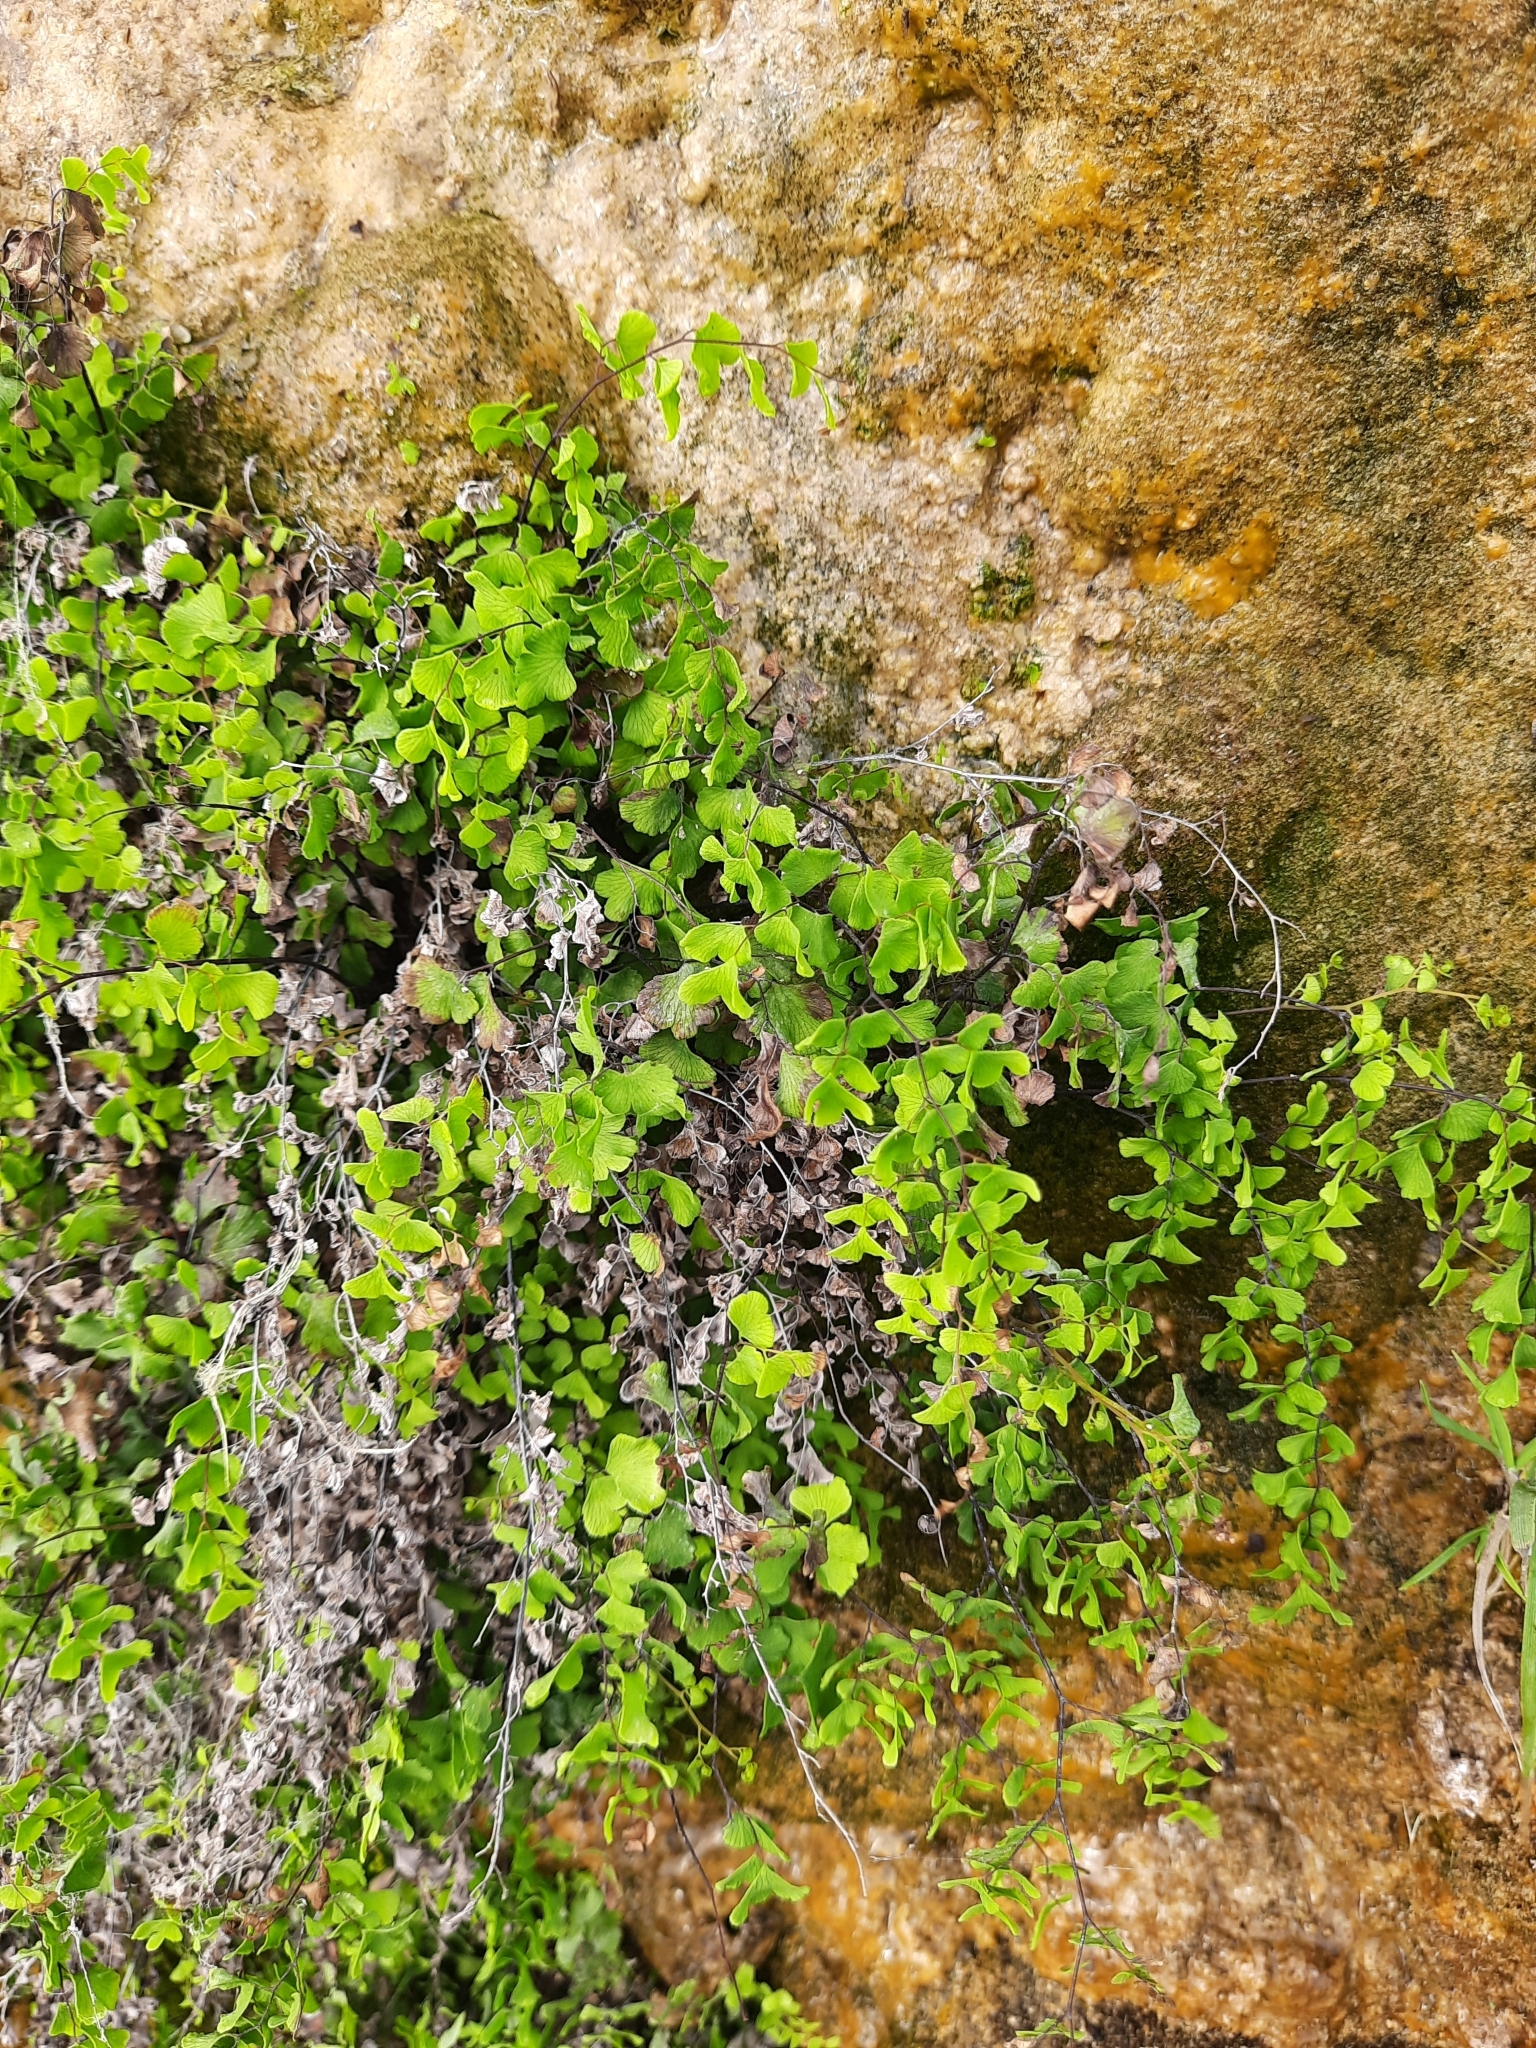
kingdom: Plantae
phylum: Tracheophyta
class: Polypodiopsida
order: Polypodiales
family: Pteridaceae
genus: Adiantum
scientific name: Adiantum capillus-veneris
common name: Maidenhair fern
